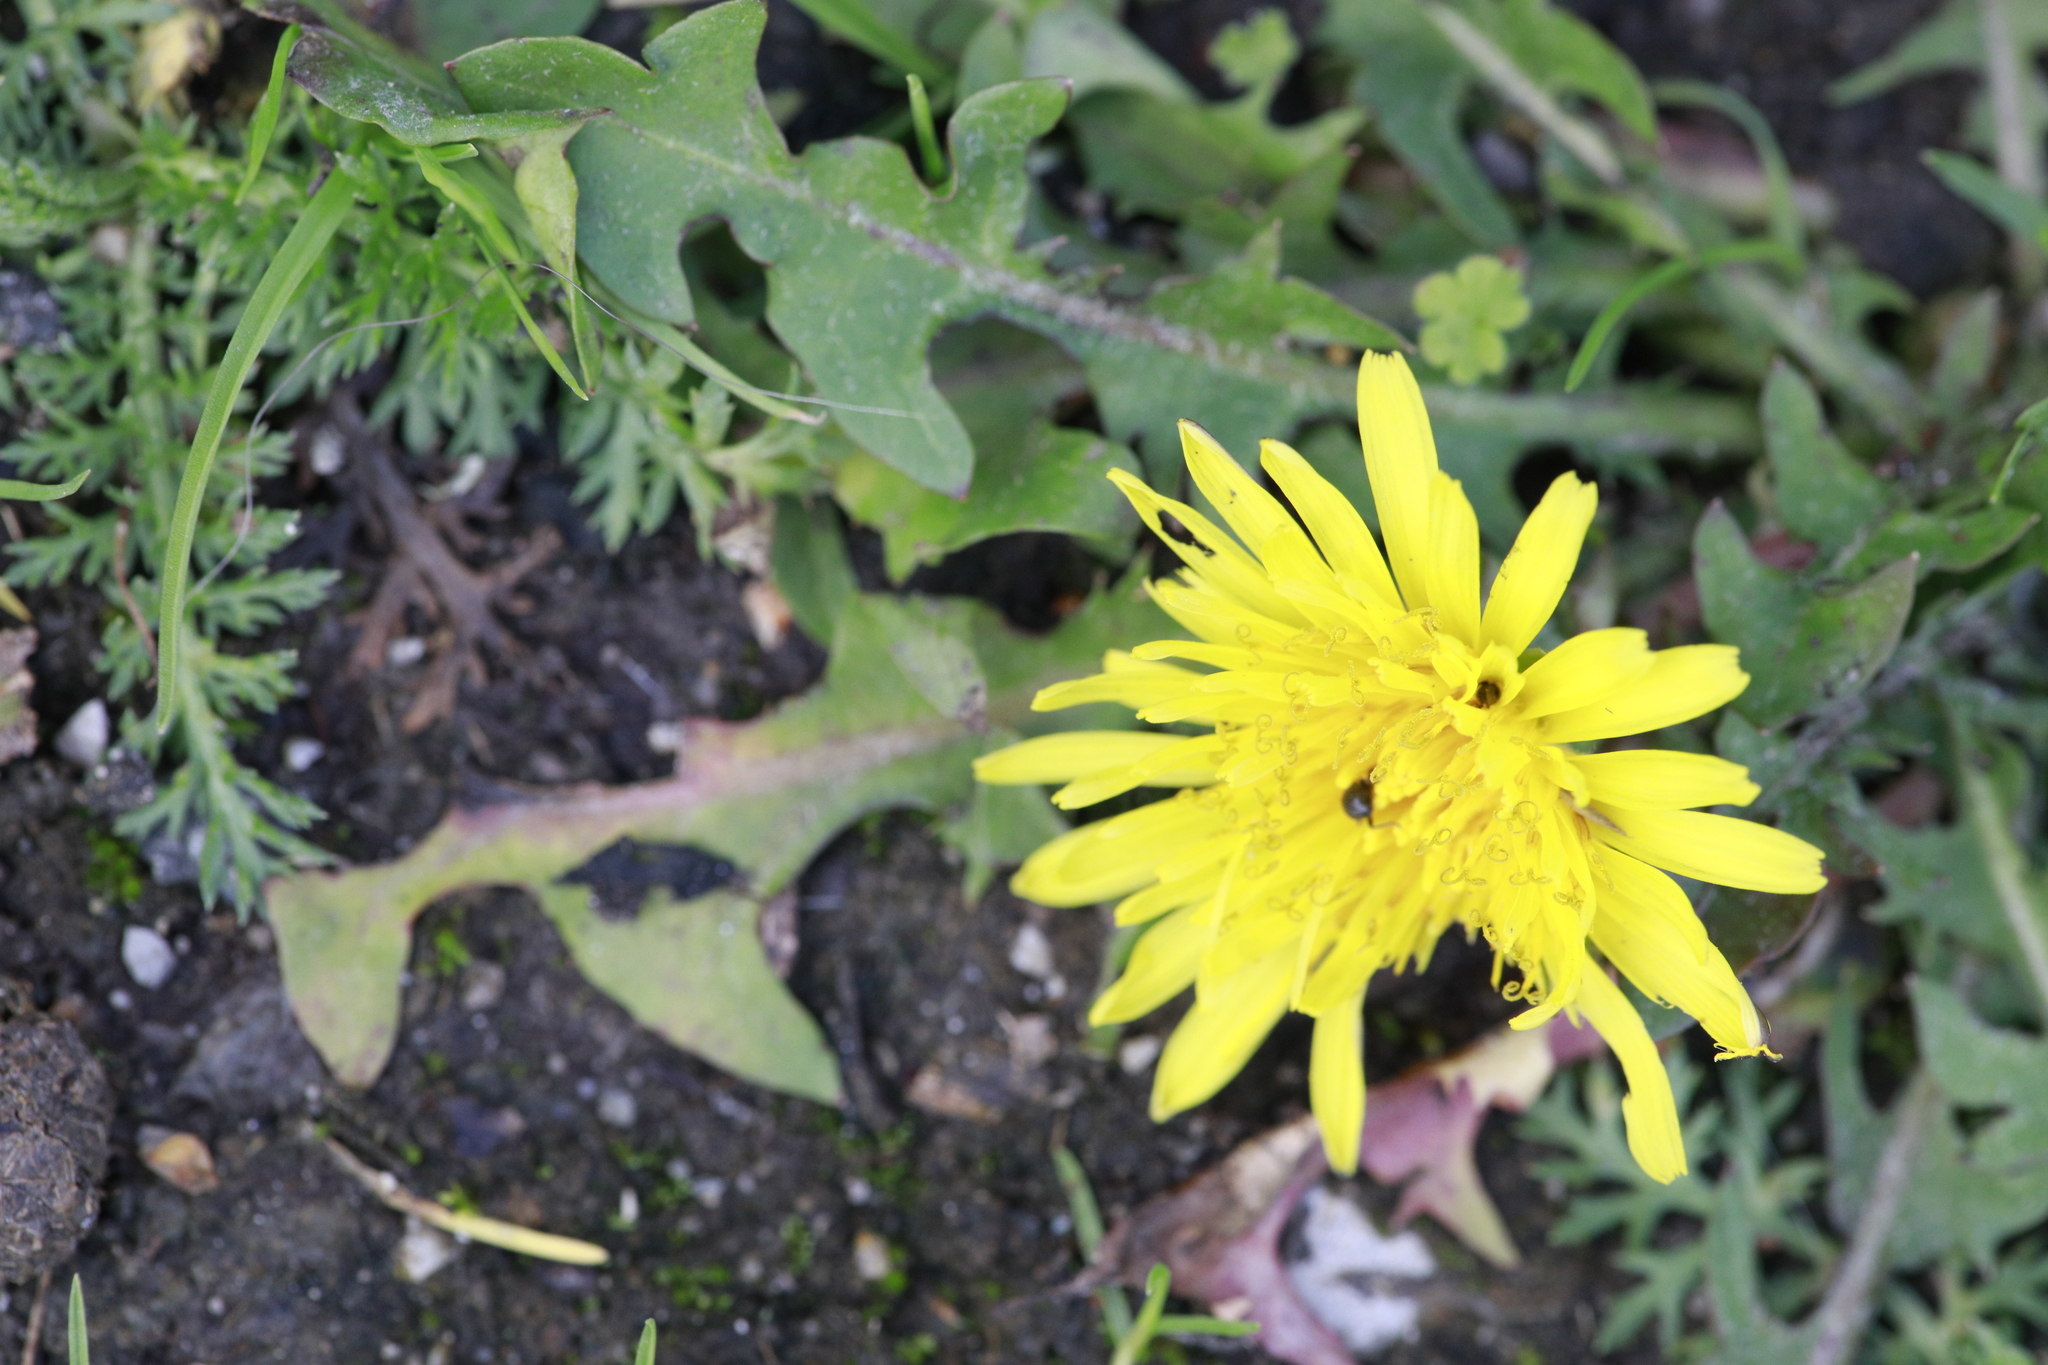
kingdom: Plantae
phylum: Tracheophyta
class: Magnoliopsida
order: Asterales
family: Asteraceae
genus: Taraxacum
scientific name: Taraxacum officinale
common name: Common dandelion
